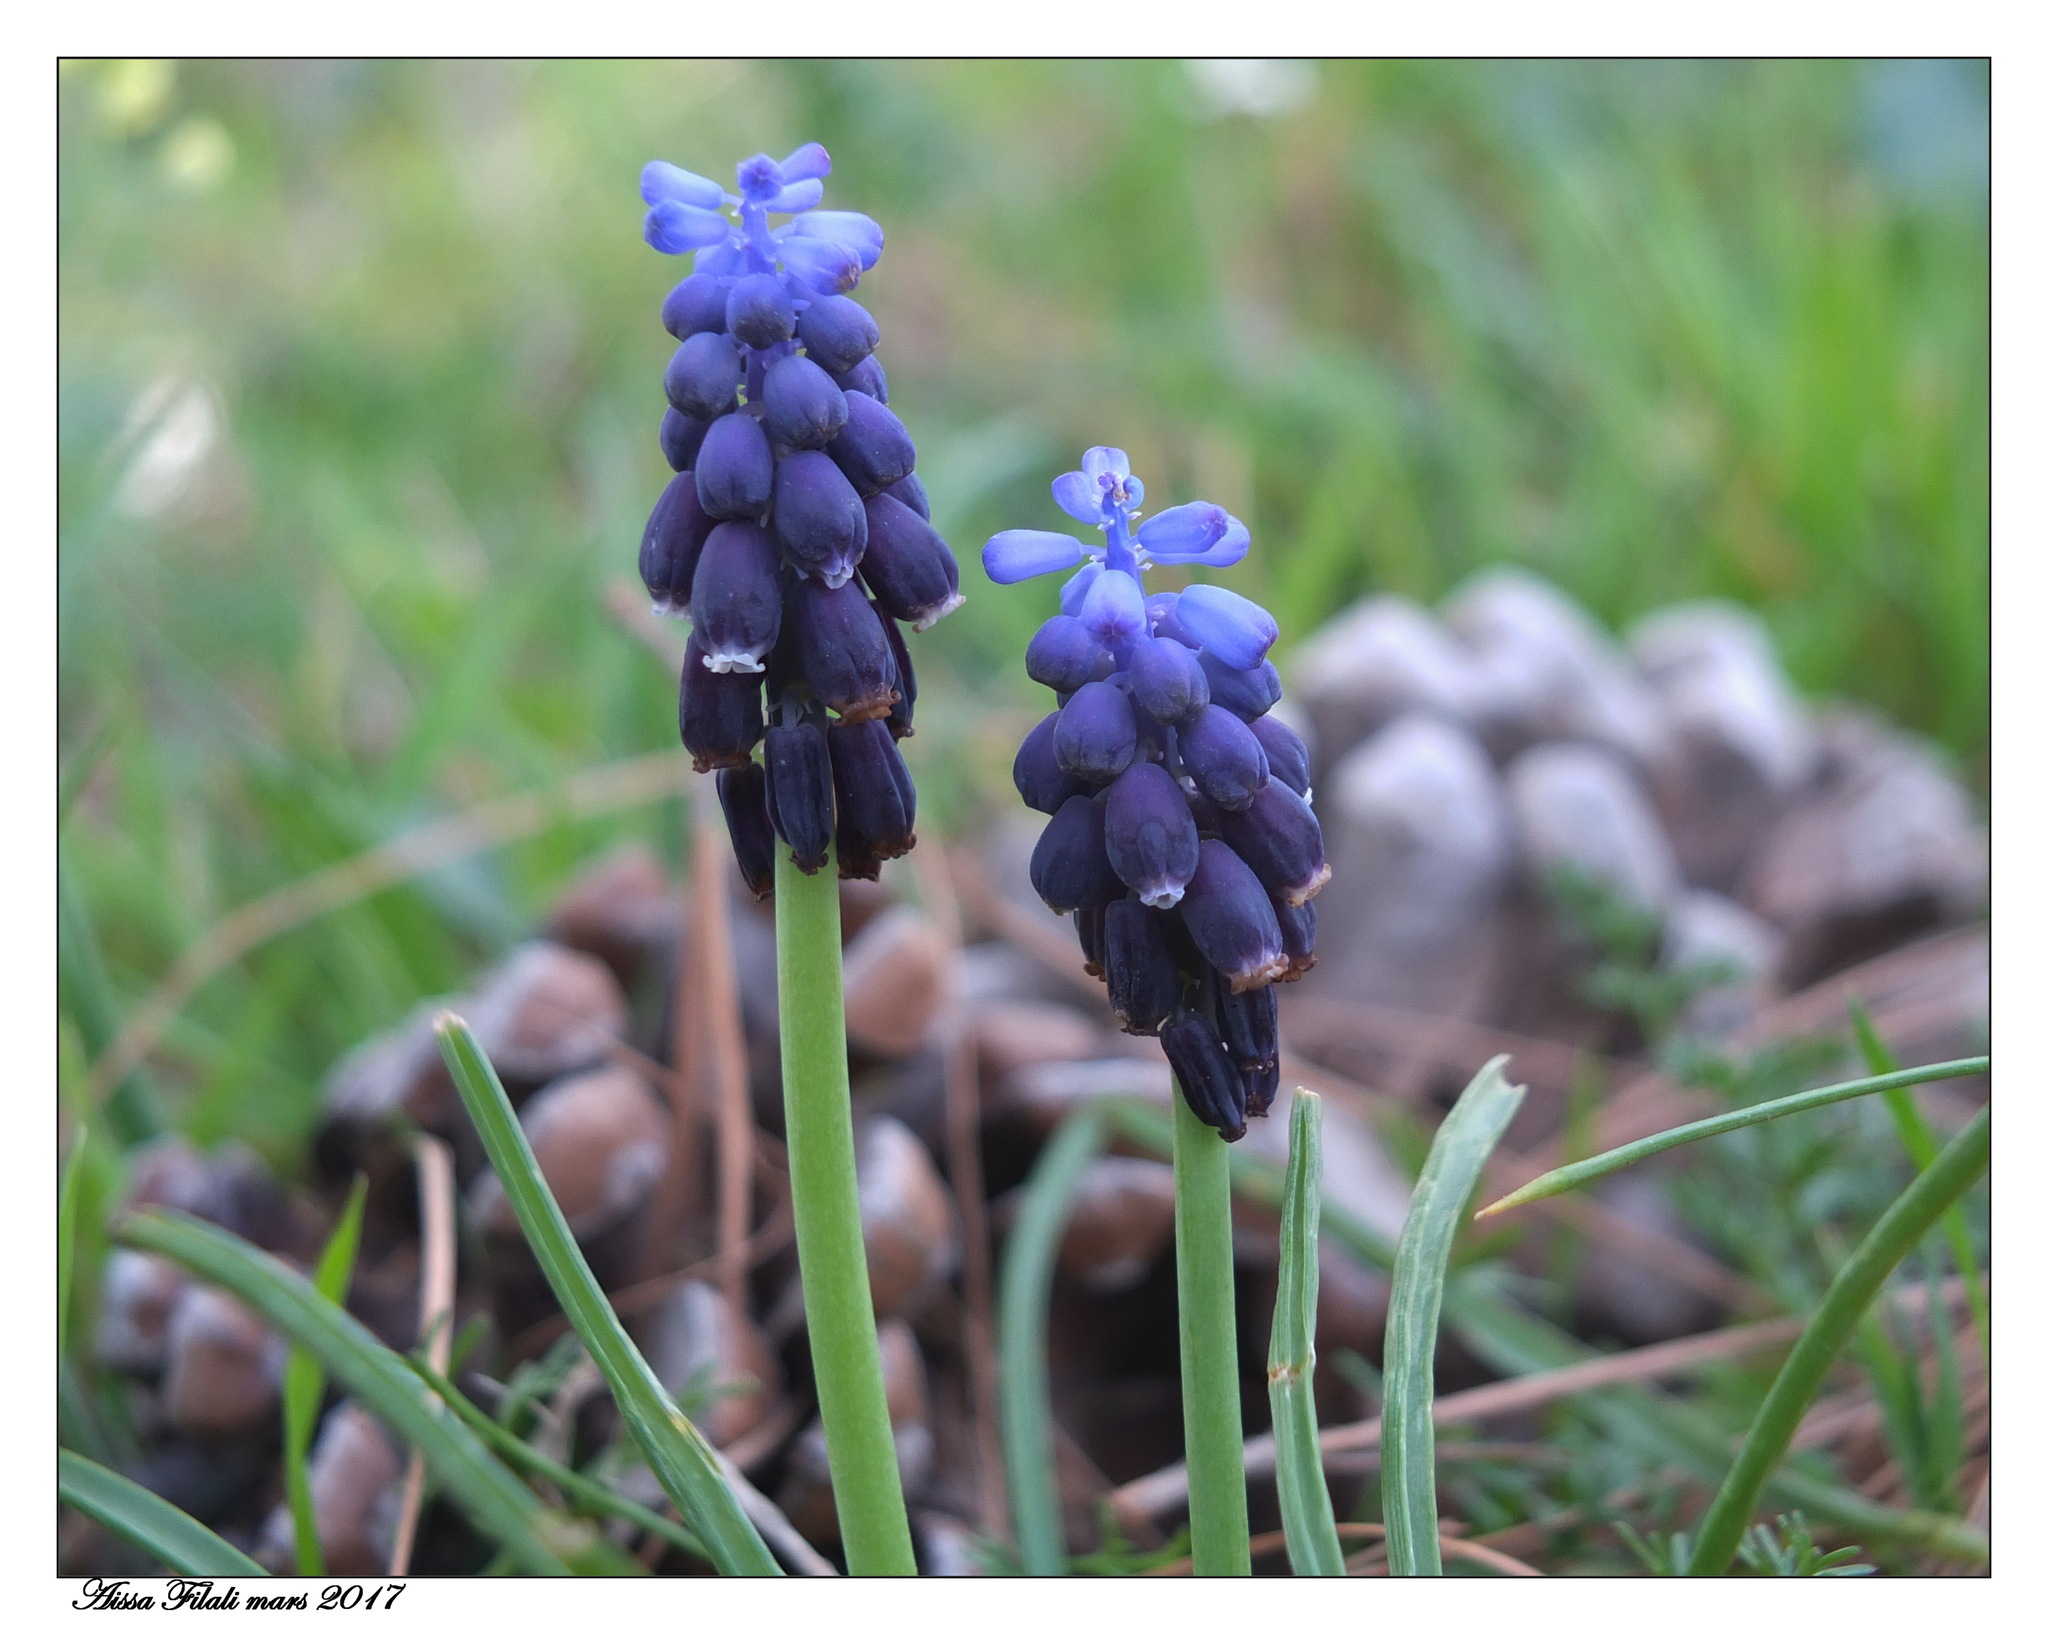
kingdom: Plantae
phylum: Tracheophyta
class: Liliopsida
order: Asparagales
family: Asparagaceae
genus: Muscari
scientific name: Muscari baeticum
